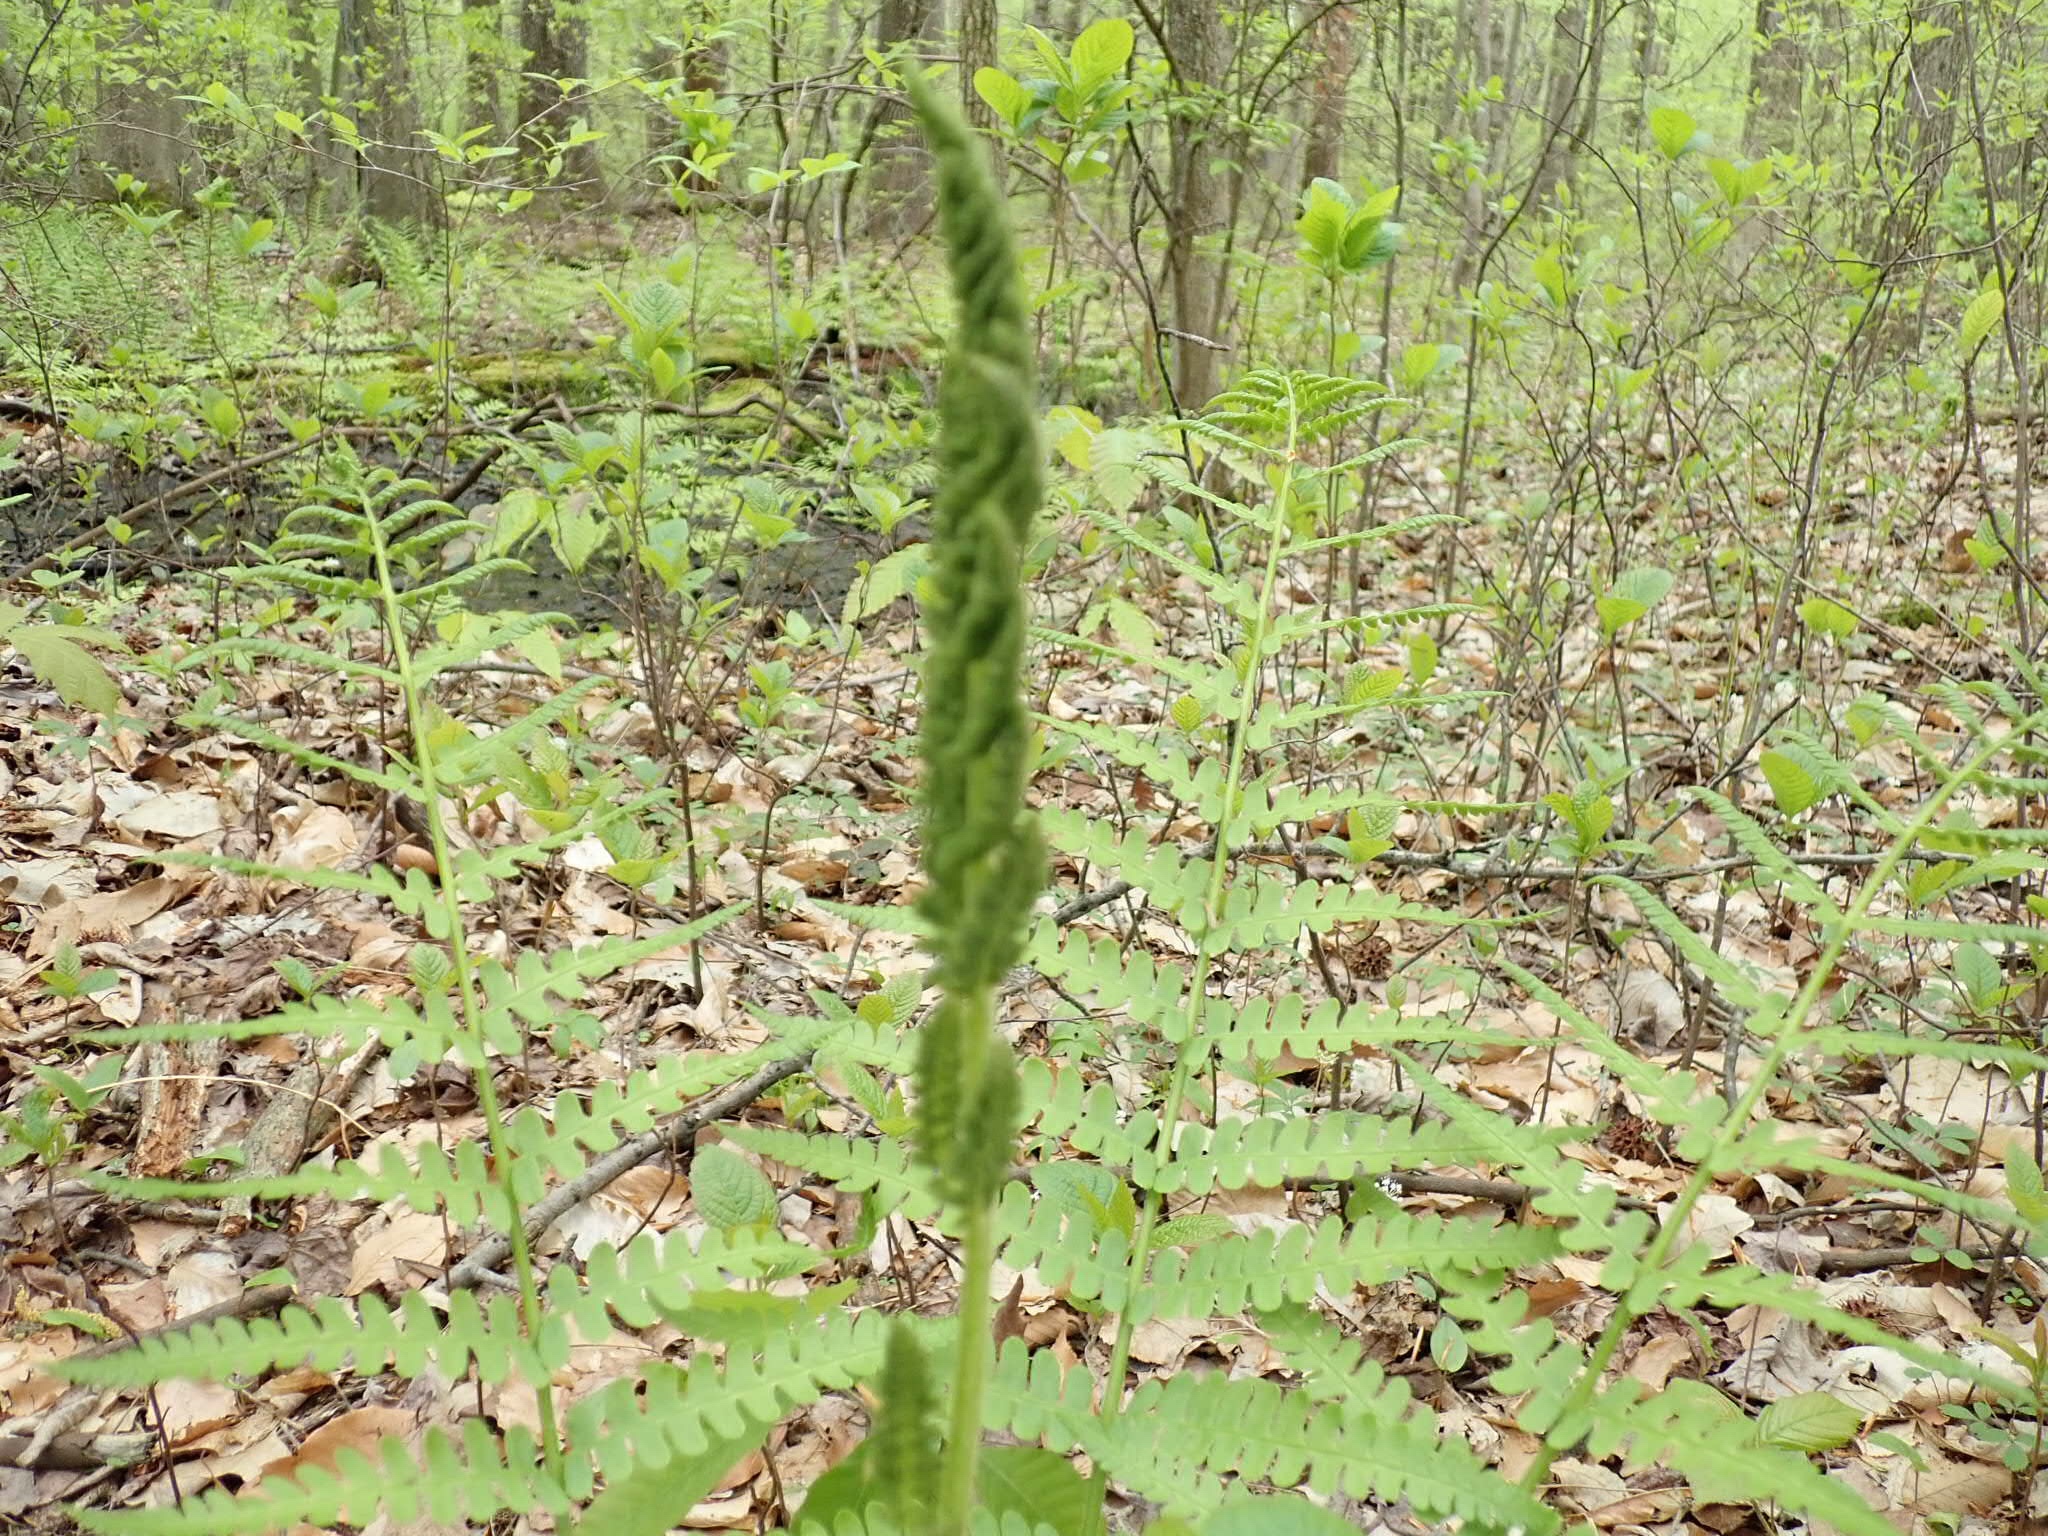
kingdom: Plantae
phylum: Tracheophyta
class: Polypodiopsida
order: Osmundales
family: Osmundaceae
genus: Osmundastrum
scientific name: Osmundastrum cinnamomeum
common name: Cinnamon fern
